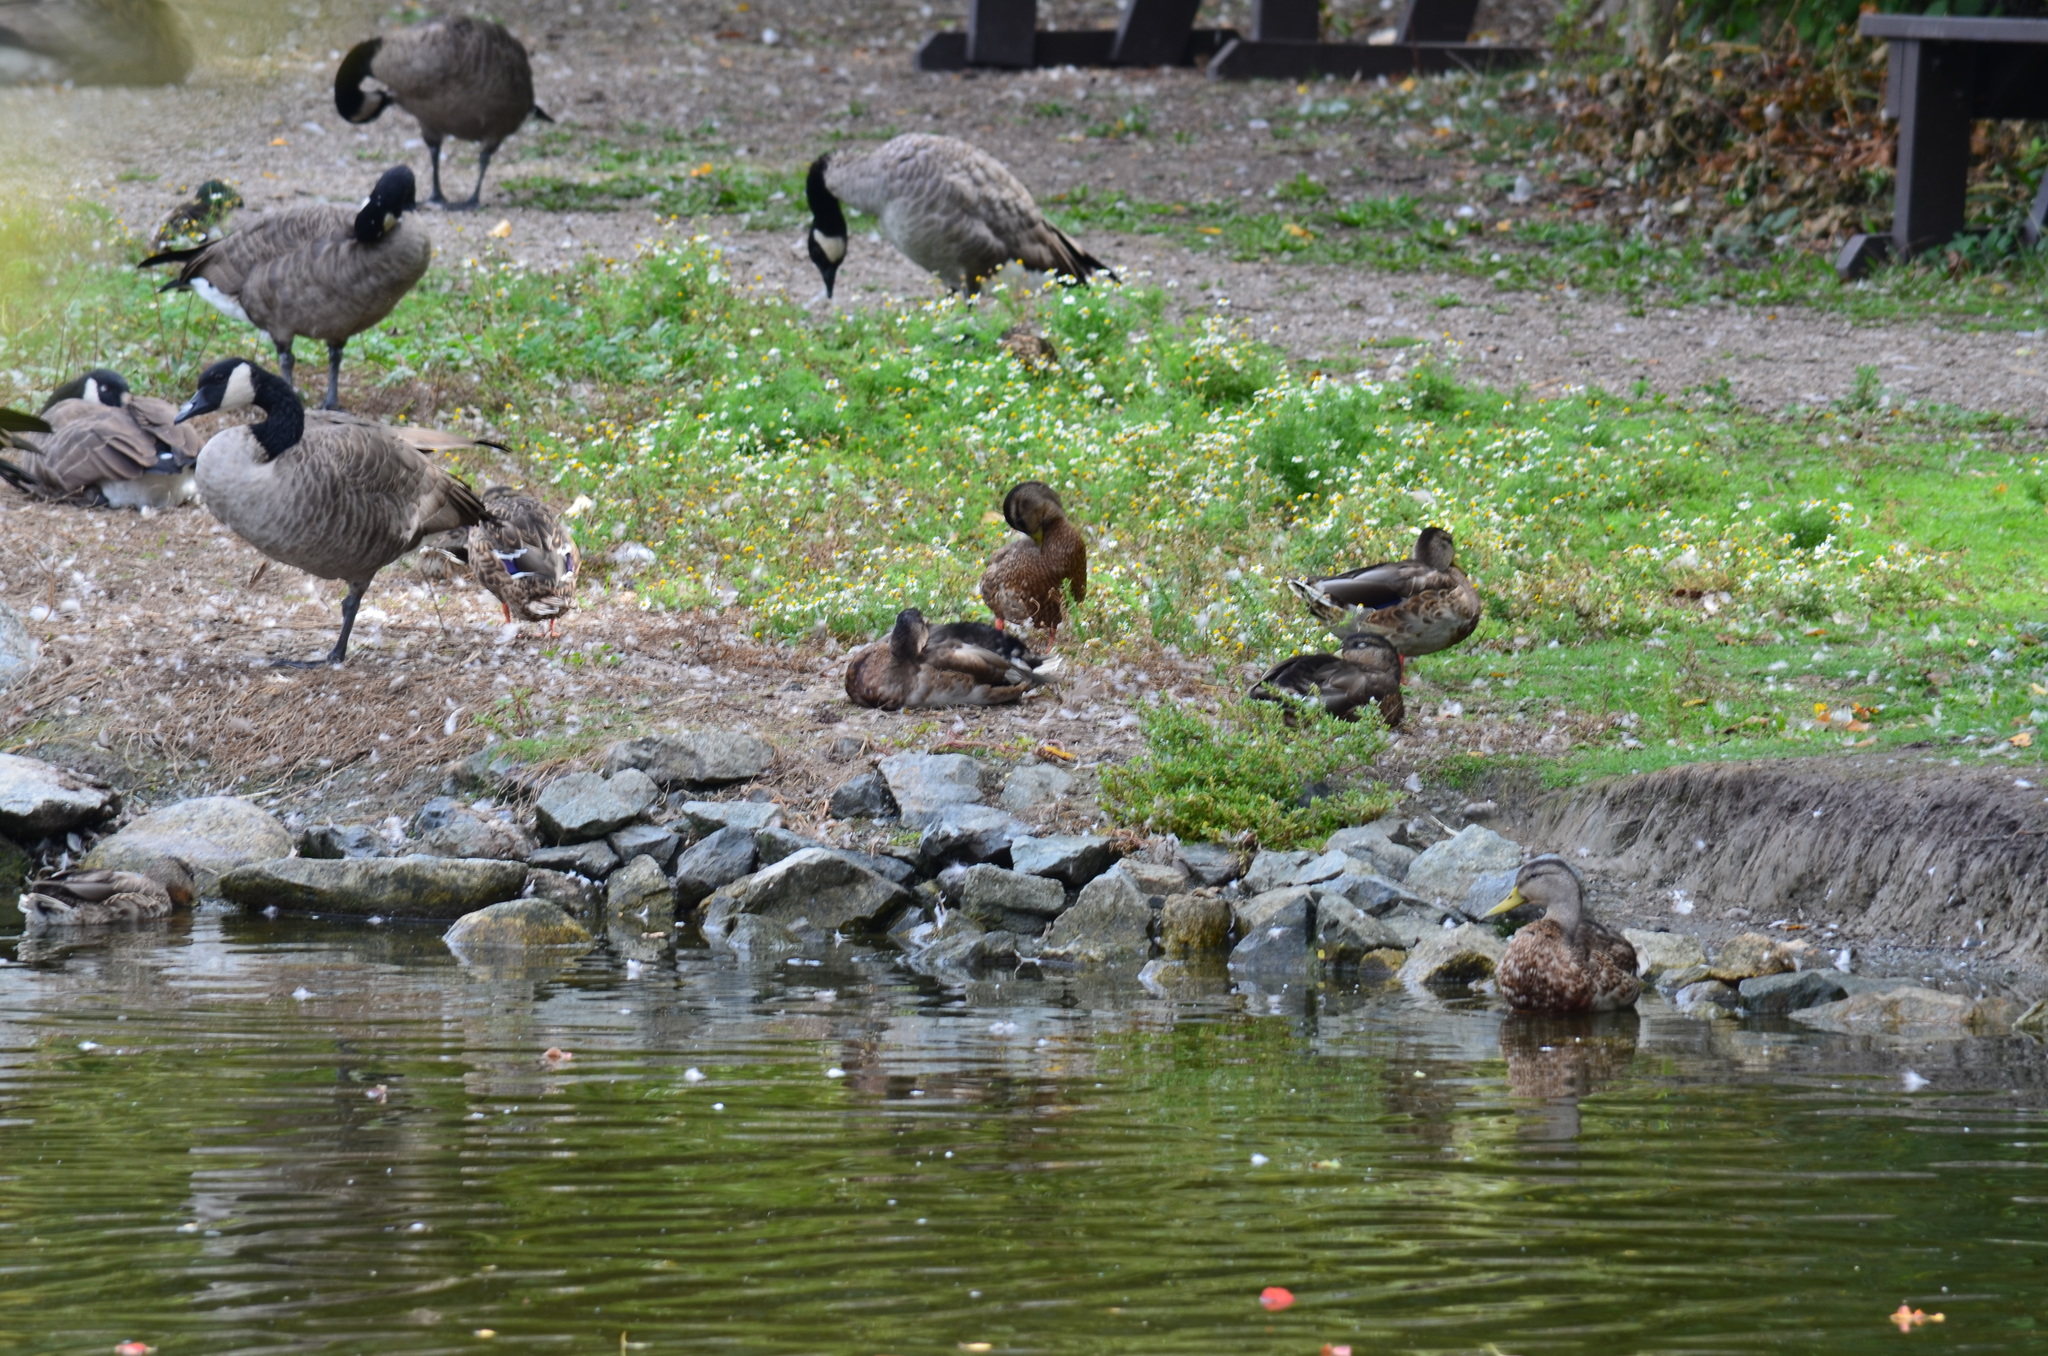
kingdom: Animalia
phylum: Chordata
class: Aves
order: Anseriformes
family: Anatidae
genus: Anas
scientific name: Anas platyrhynchos
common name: Mallard
